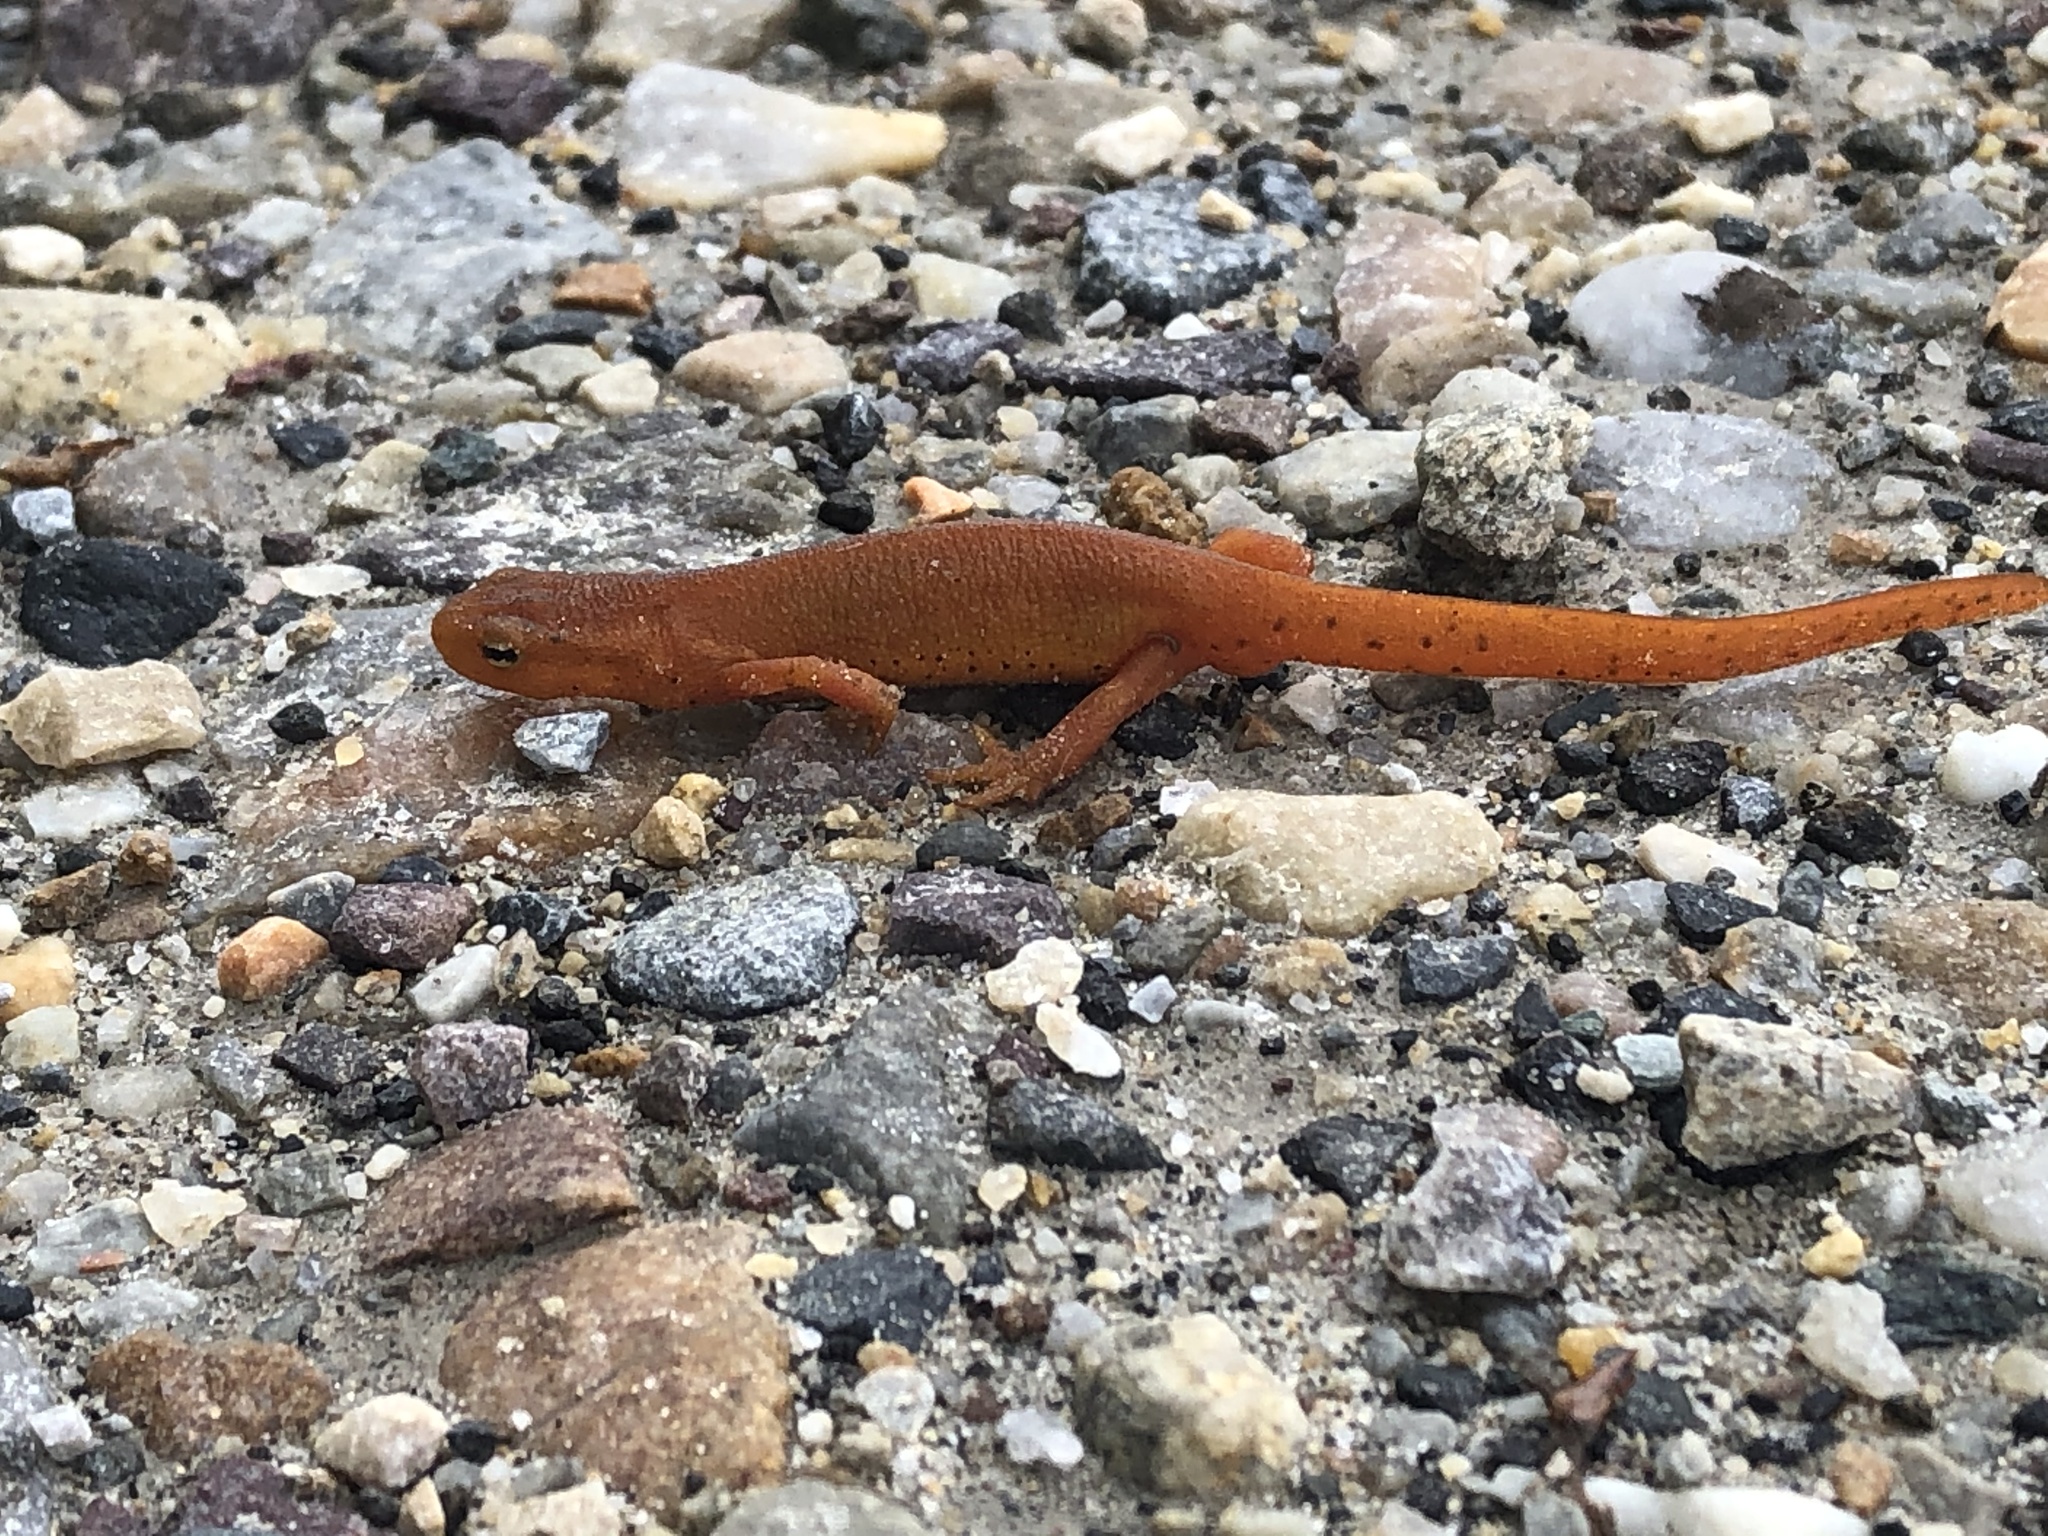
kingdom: Animalia
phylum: Chordata
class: Amphibia
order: Caudata
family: Salamandridae
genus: Notophthalmus
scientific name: Notophthalmus viridescens
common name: Eastern newt
